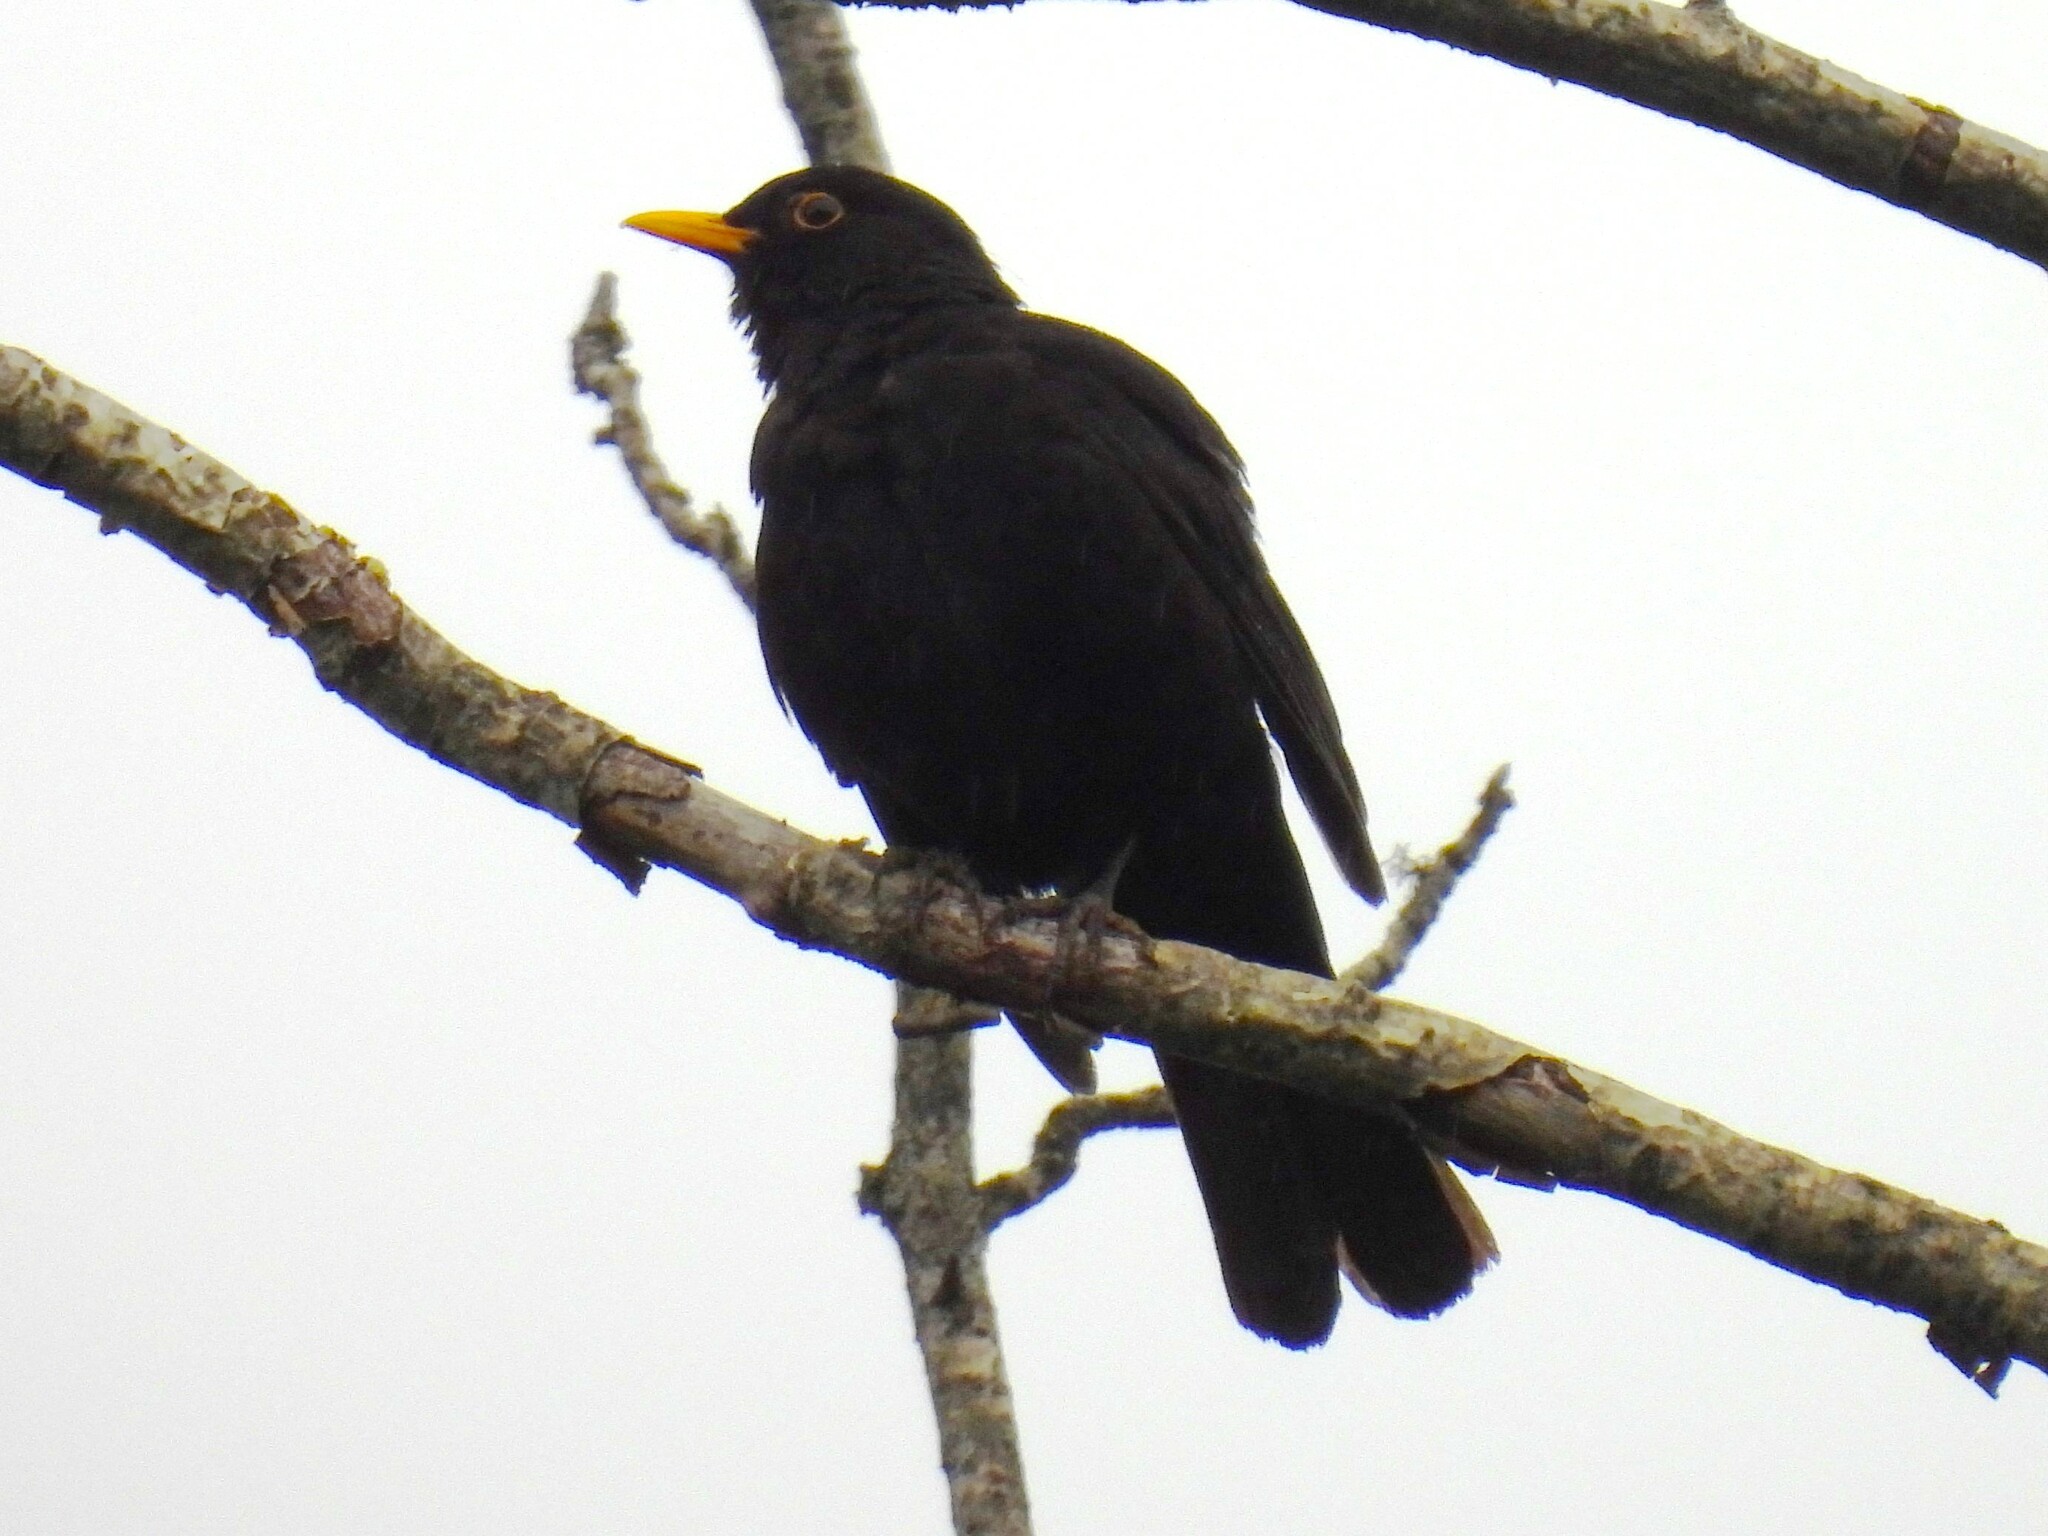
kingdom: Animalia
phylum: Chordata
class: Aves
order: Passeriformes
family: Turdidae
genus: Turdus
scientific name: Turdus merula
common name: Common blackbird
